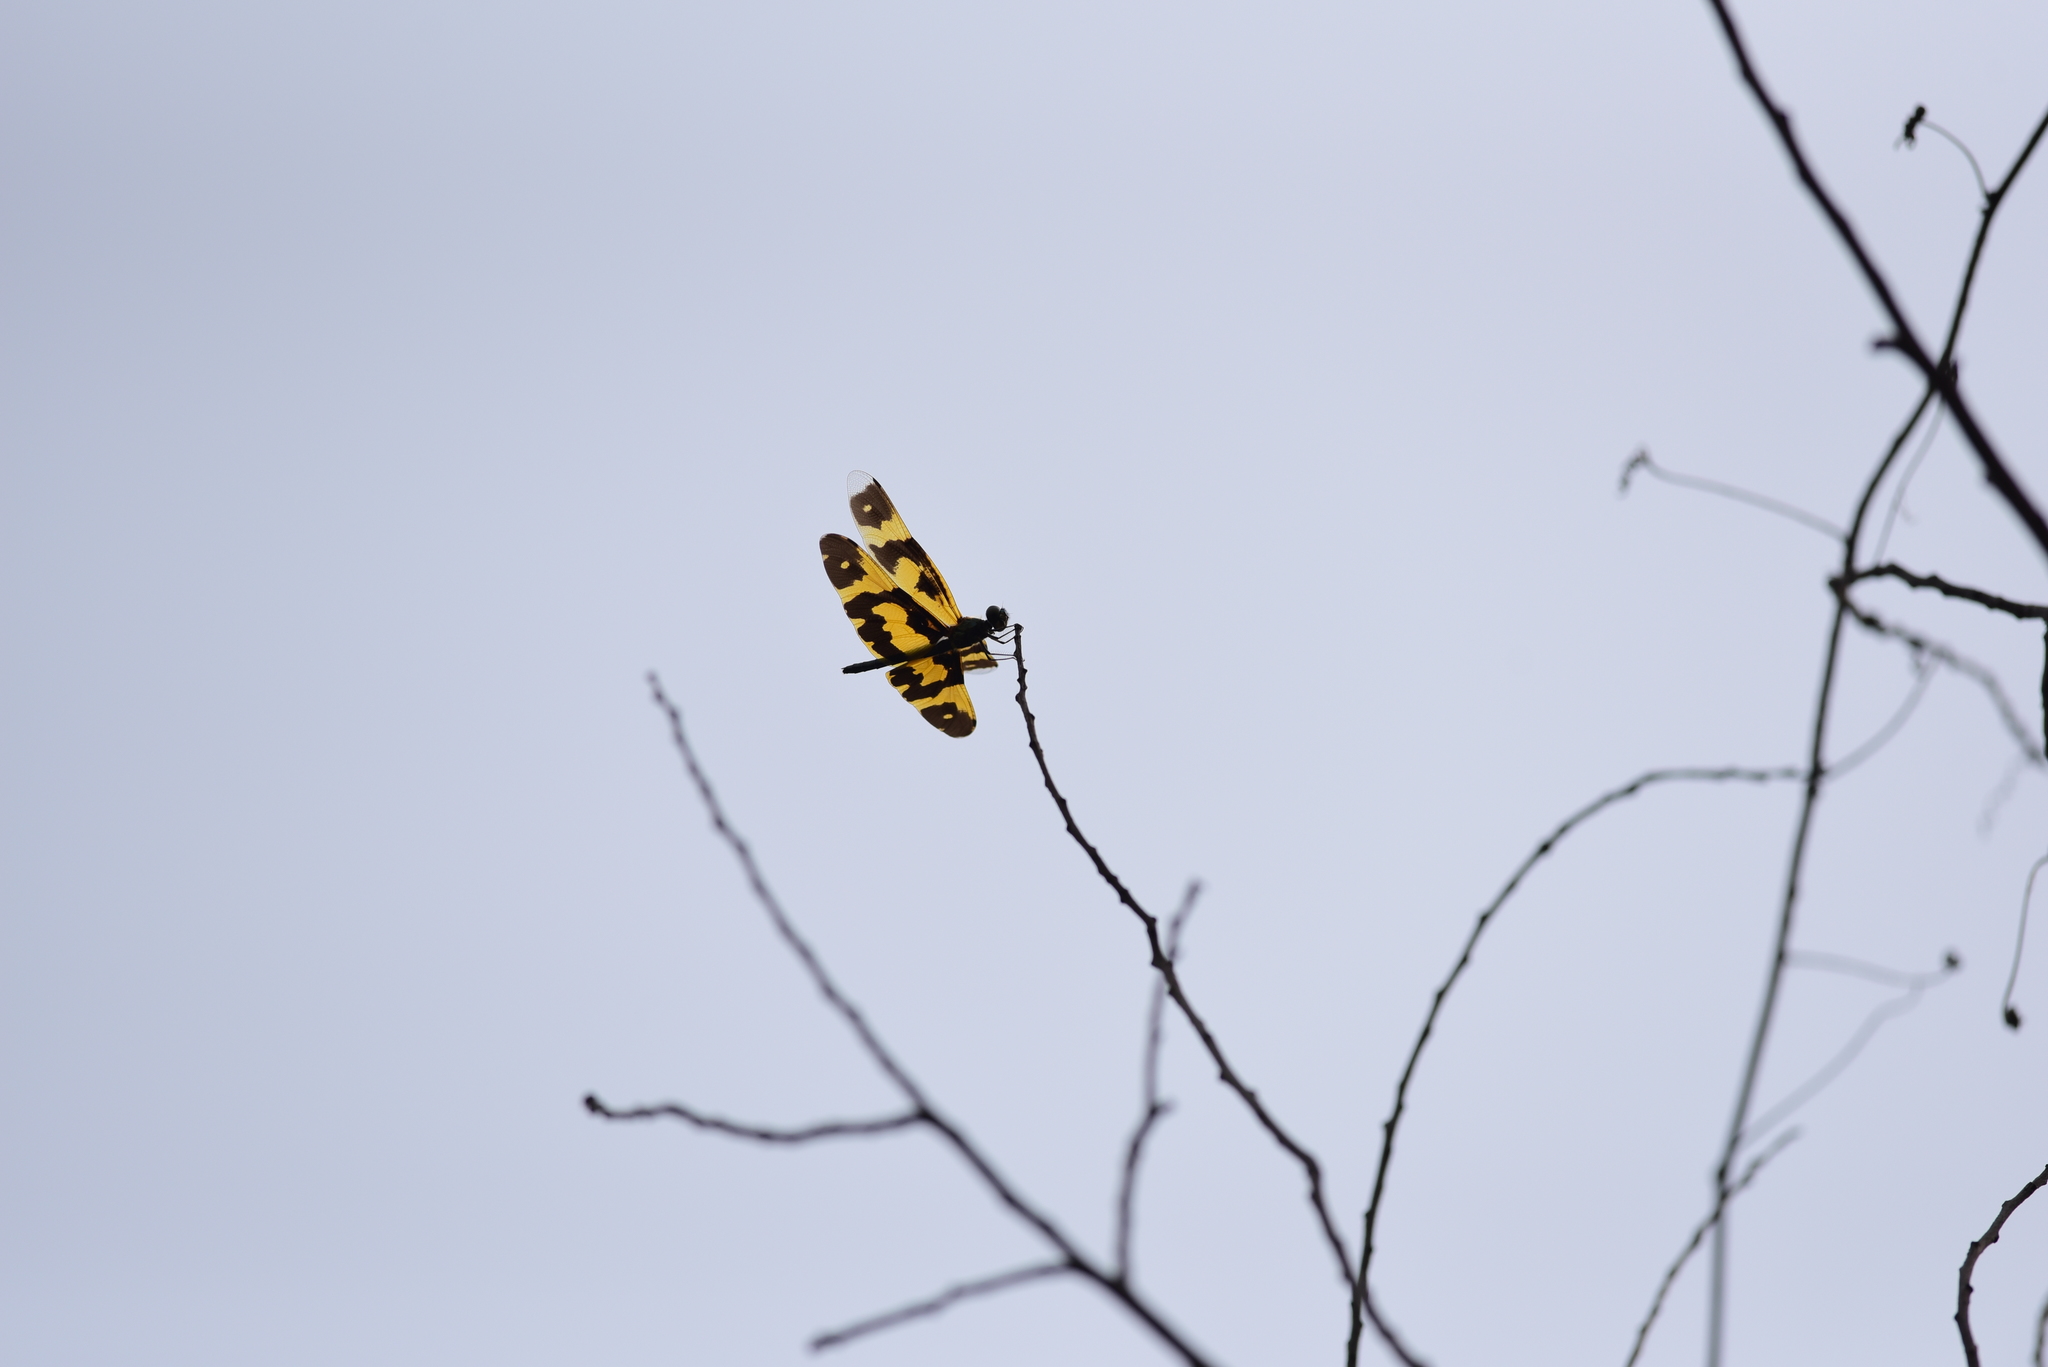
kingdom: Animalia
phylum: Arthropoda
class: Insecta
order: Odonata
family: Libellulidae
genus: Rhyothemis
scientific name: Rhyothemis variegata
